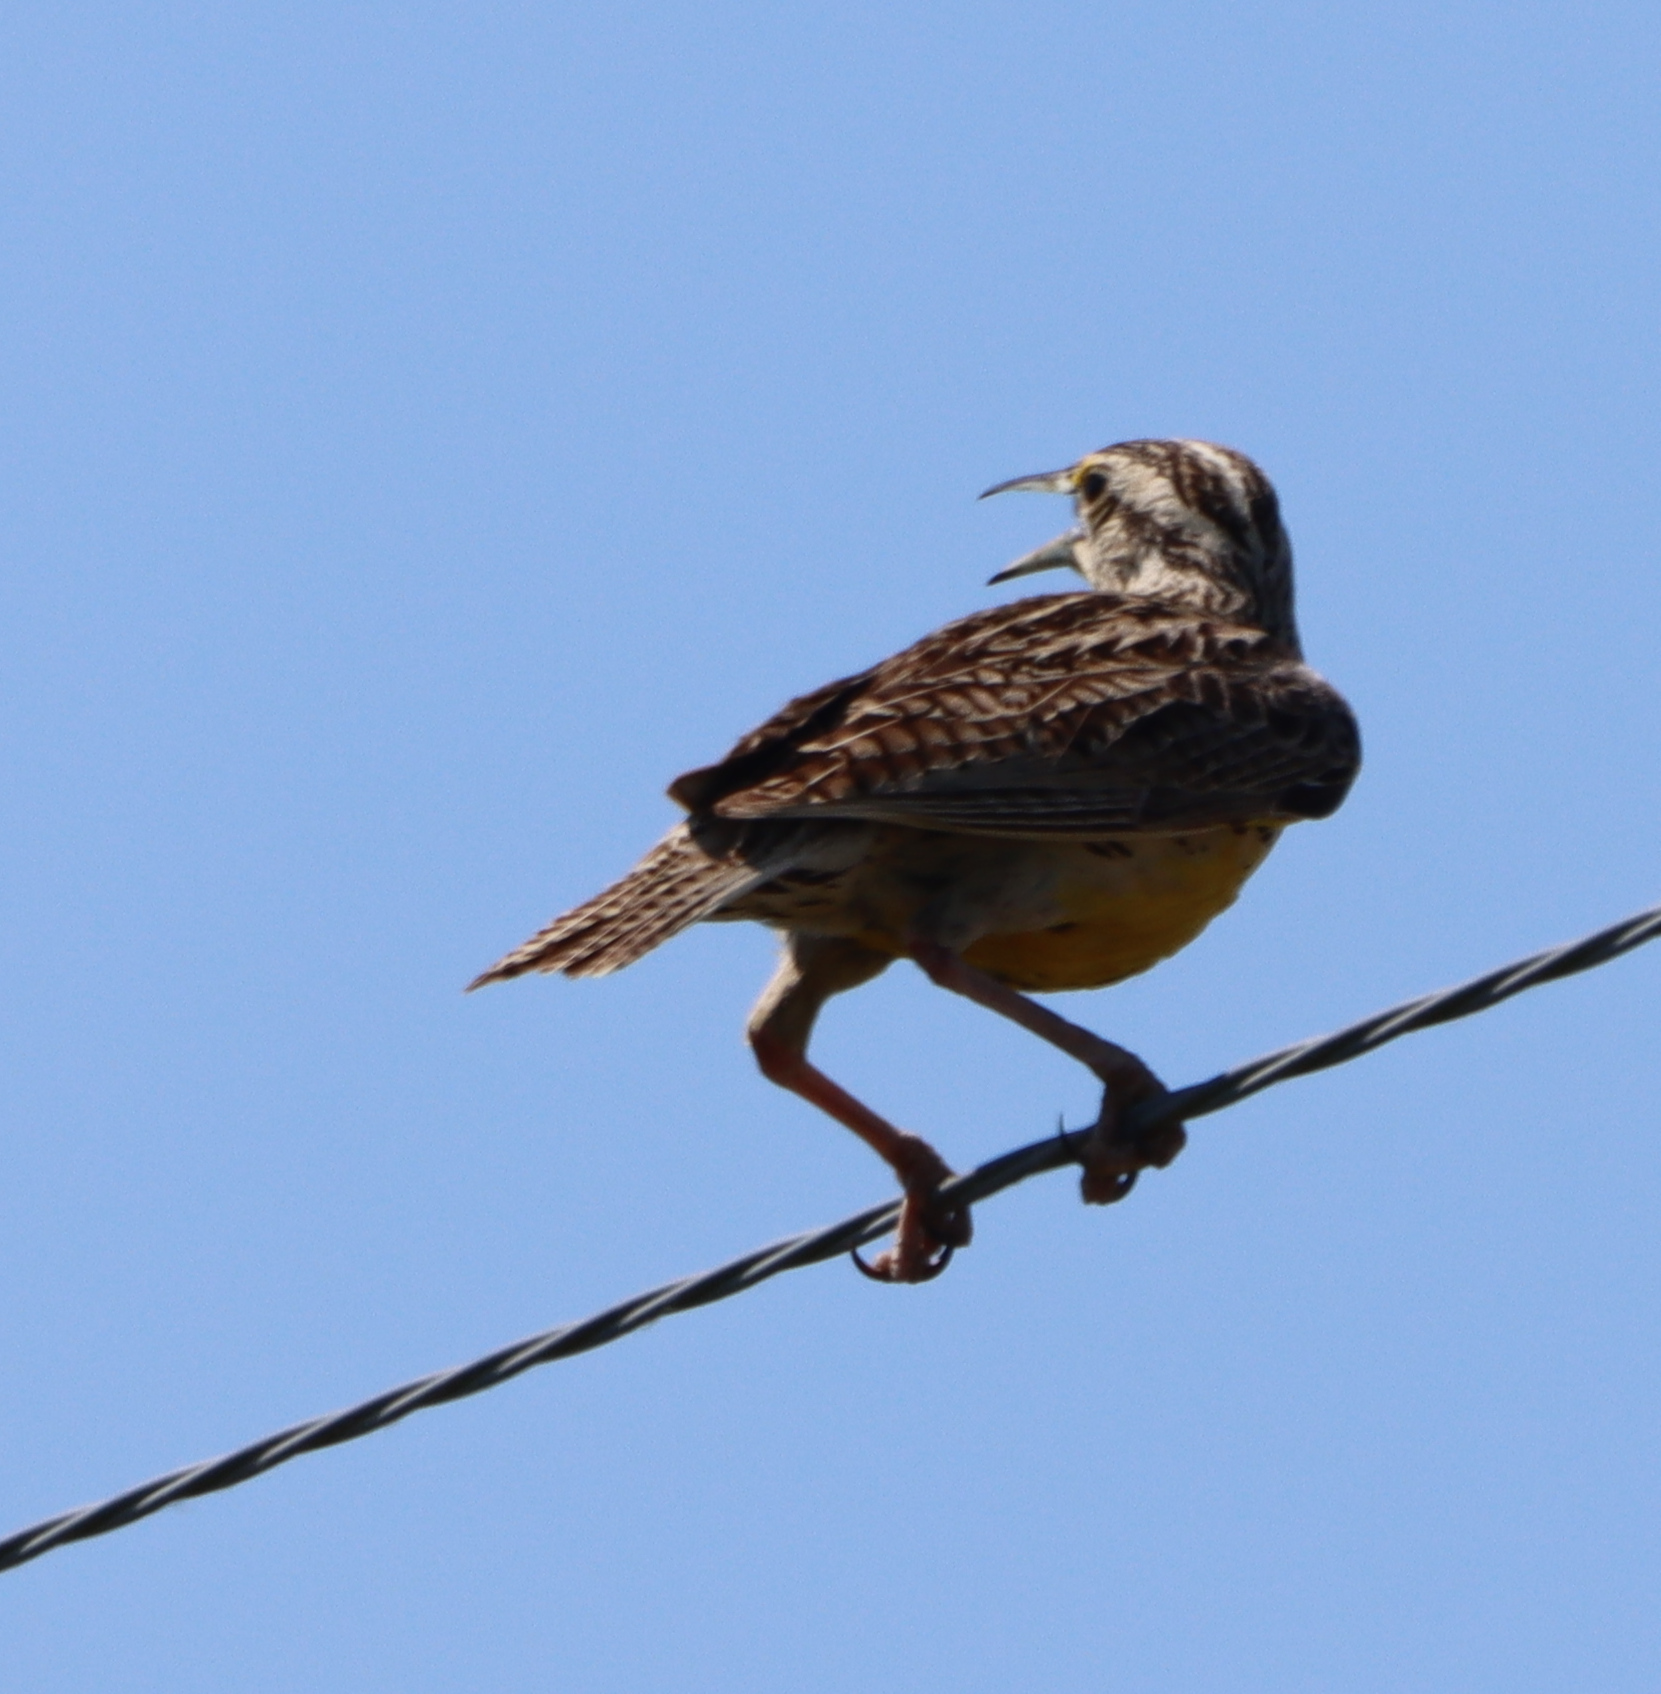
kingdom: Animalia
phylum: Chordata
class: Aves
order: Passeriformes
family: Icteridae
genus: Sturnella
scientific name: Sturnella neglecta
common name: Western meadowlark
